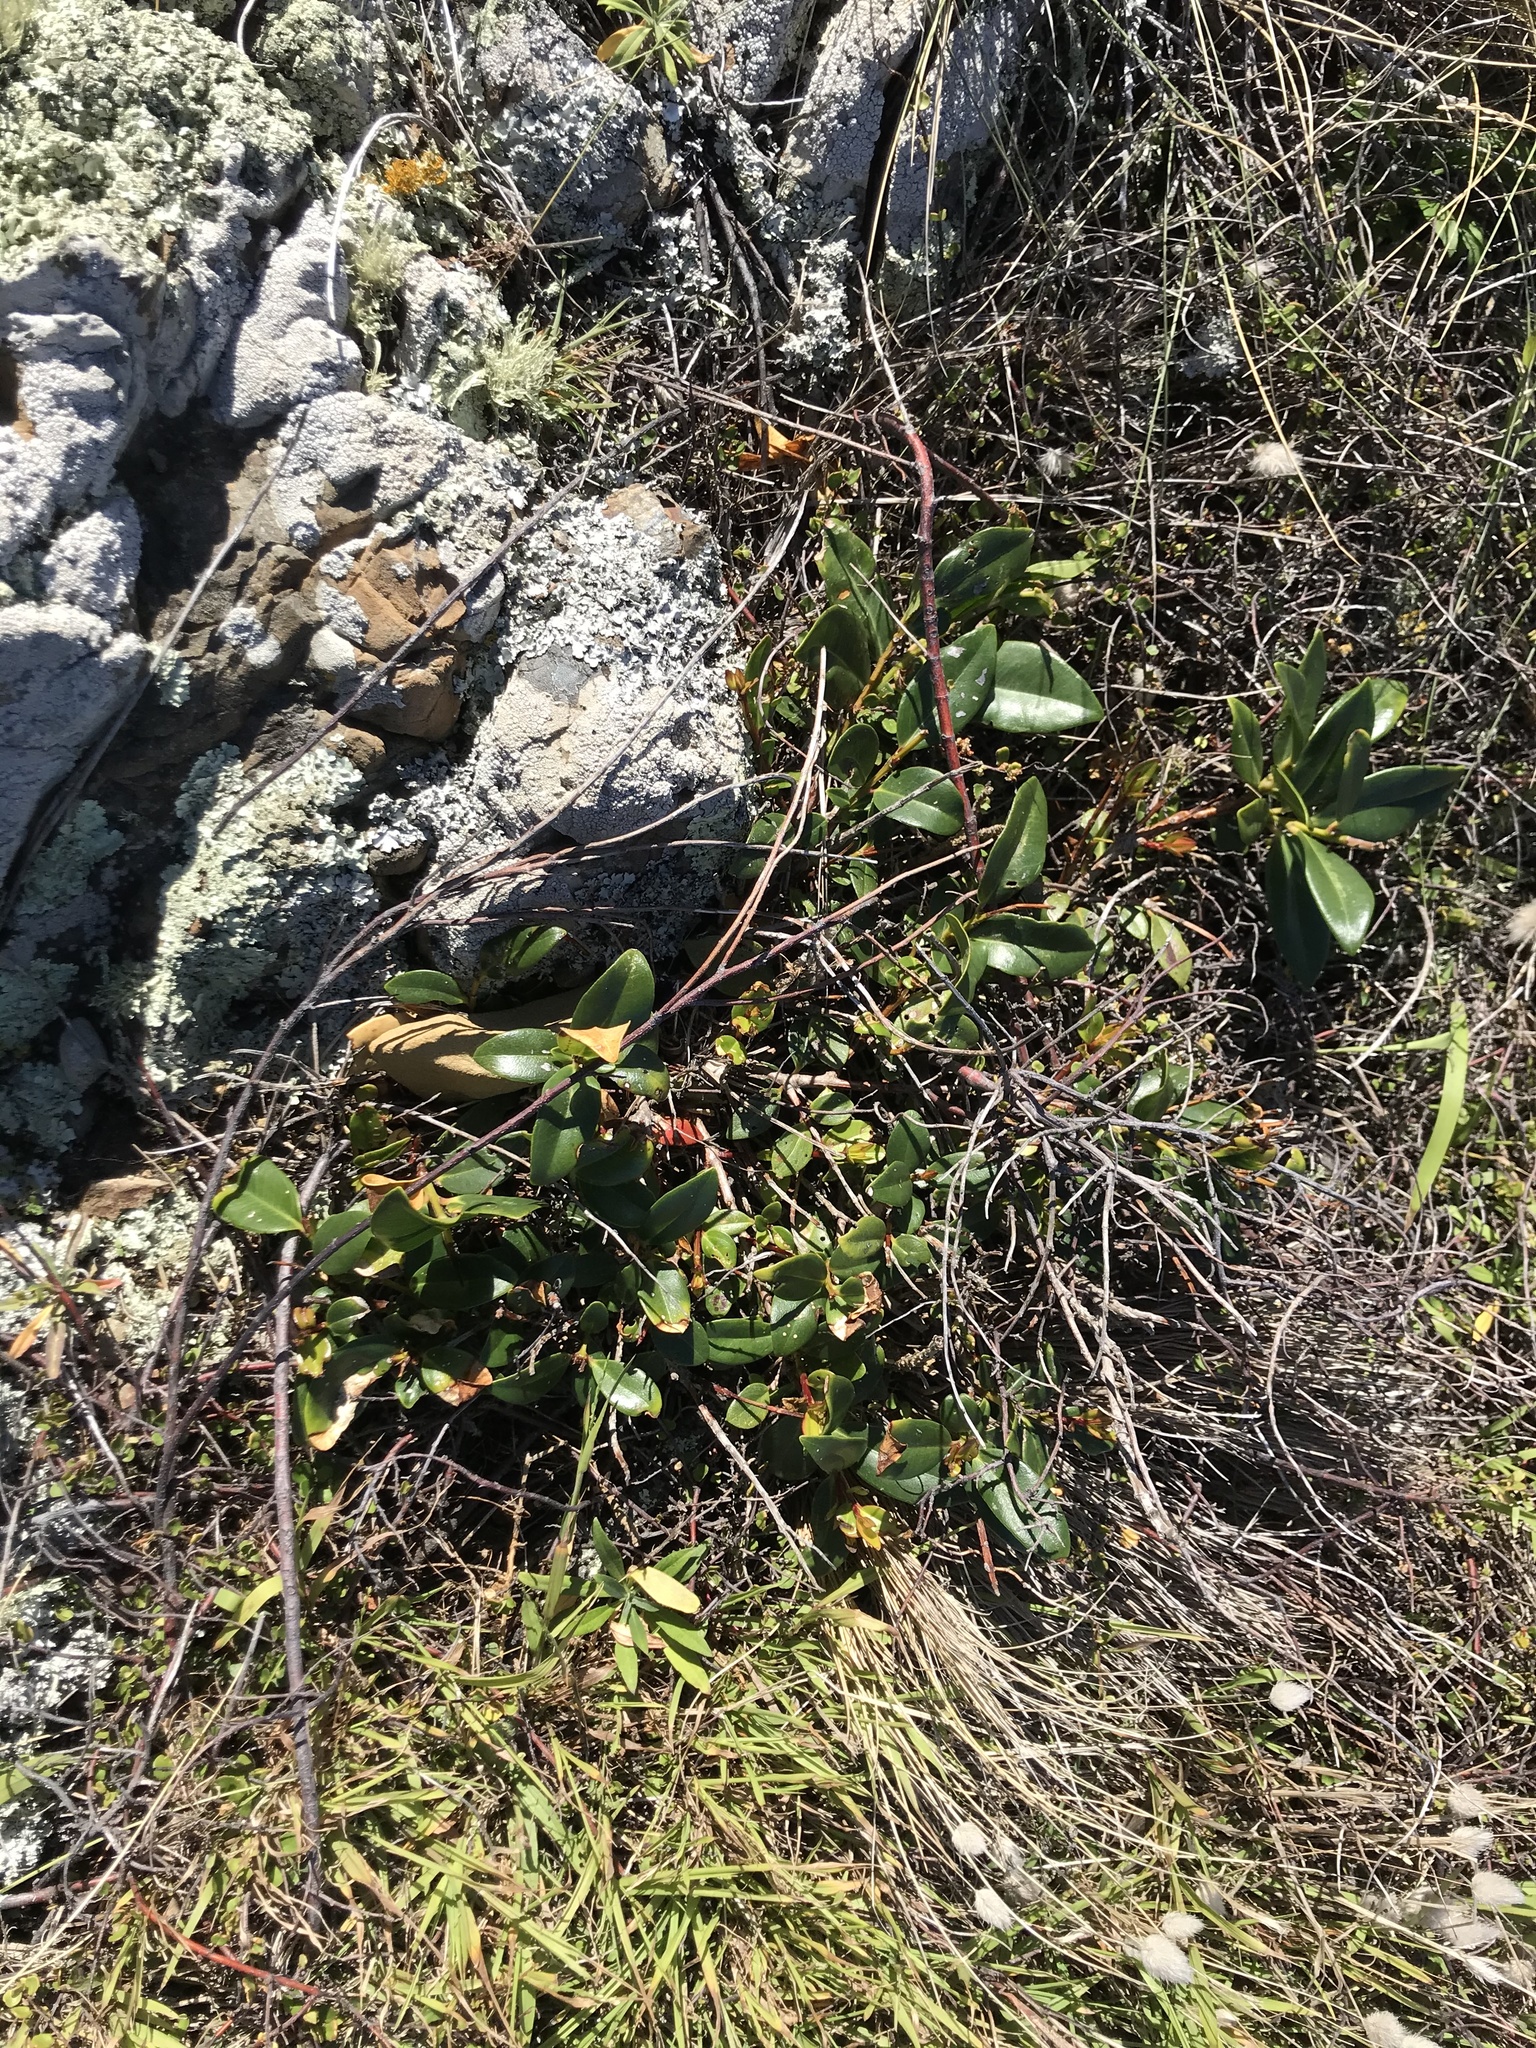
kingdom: Plantae
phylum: Tracheophyta
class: Magnoliopsida
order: Myrtales
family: Myrtaceae
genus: Metrosideros
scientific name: Metrosideros excelsa
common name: New zealand christmastree
